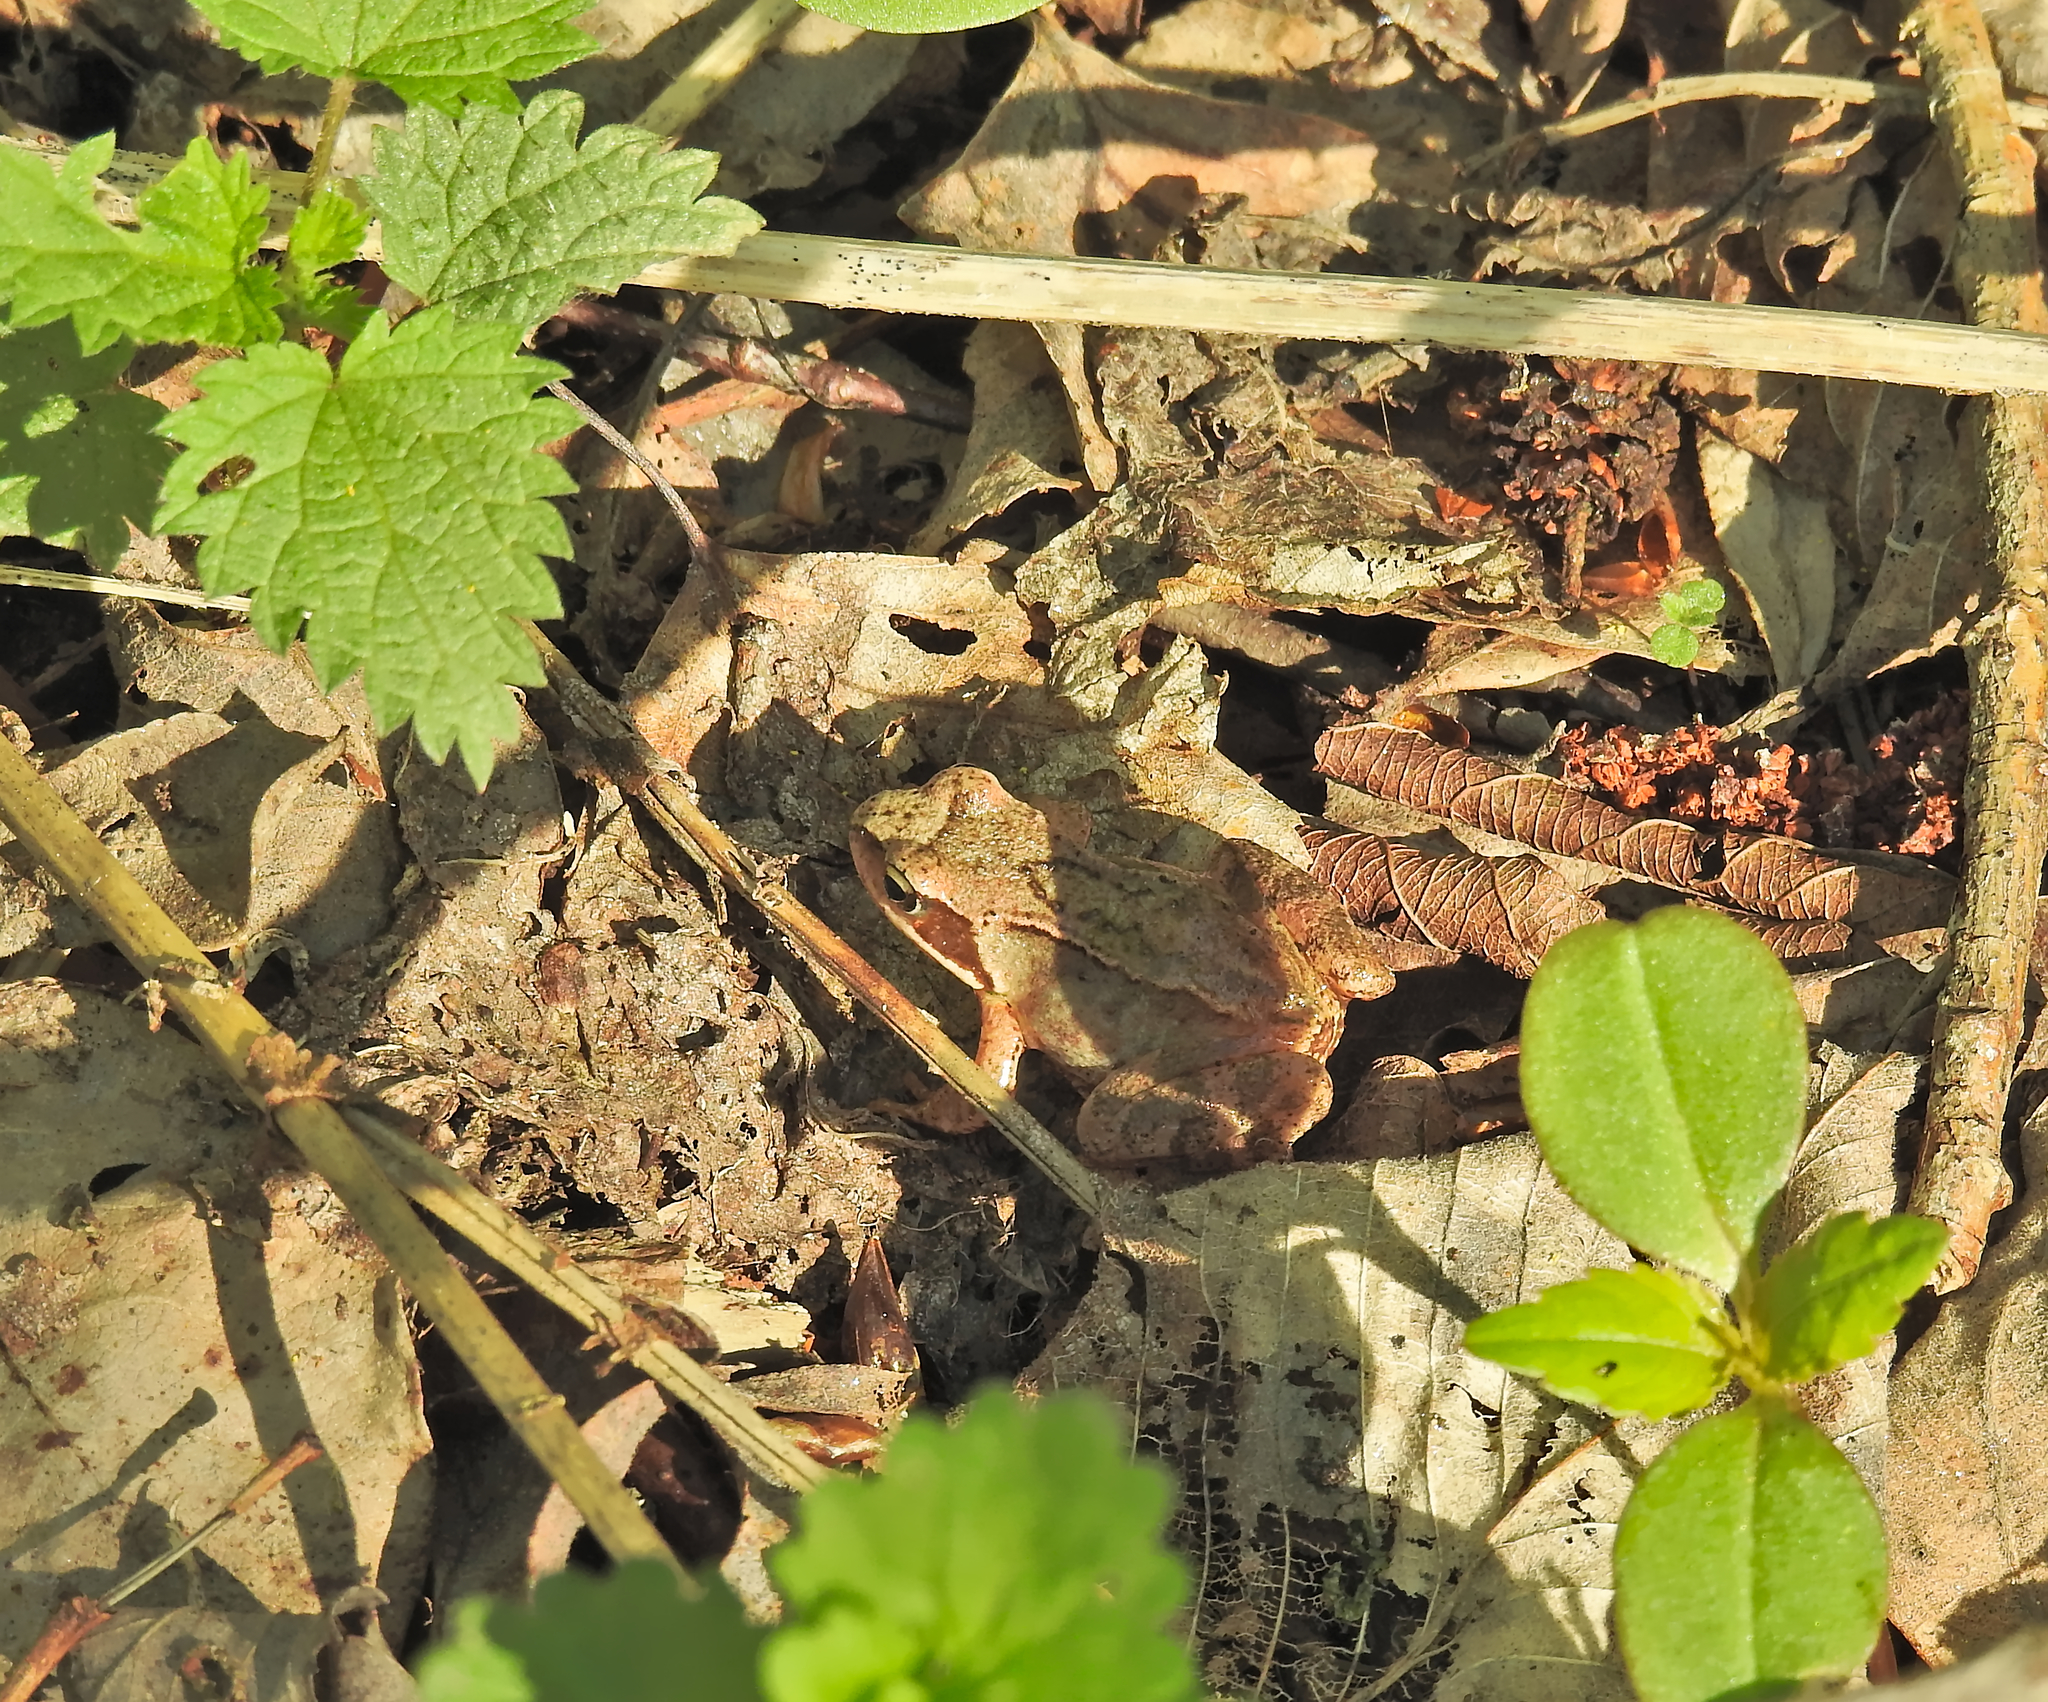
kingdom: Animalia
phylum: Chordata
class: Amphibia
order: Anura
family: Ranidae
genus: Rana
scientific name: Rana temporaria
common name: Common frog
